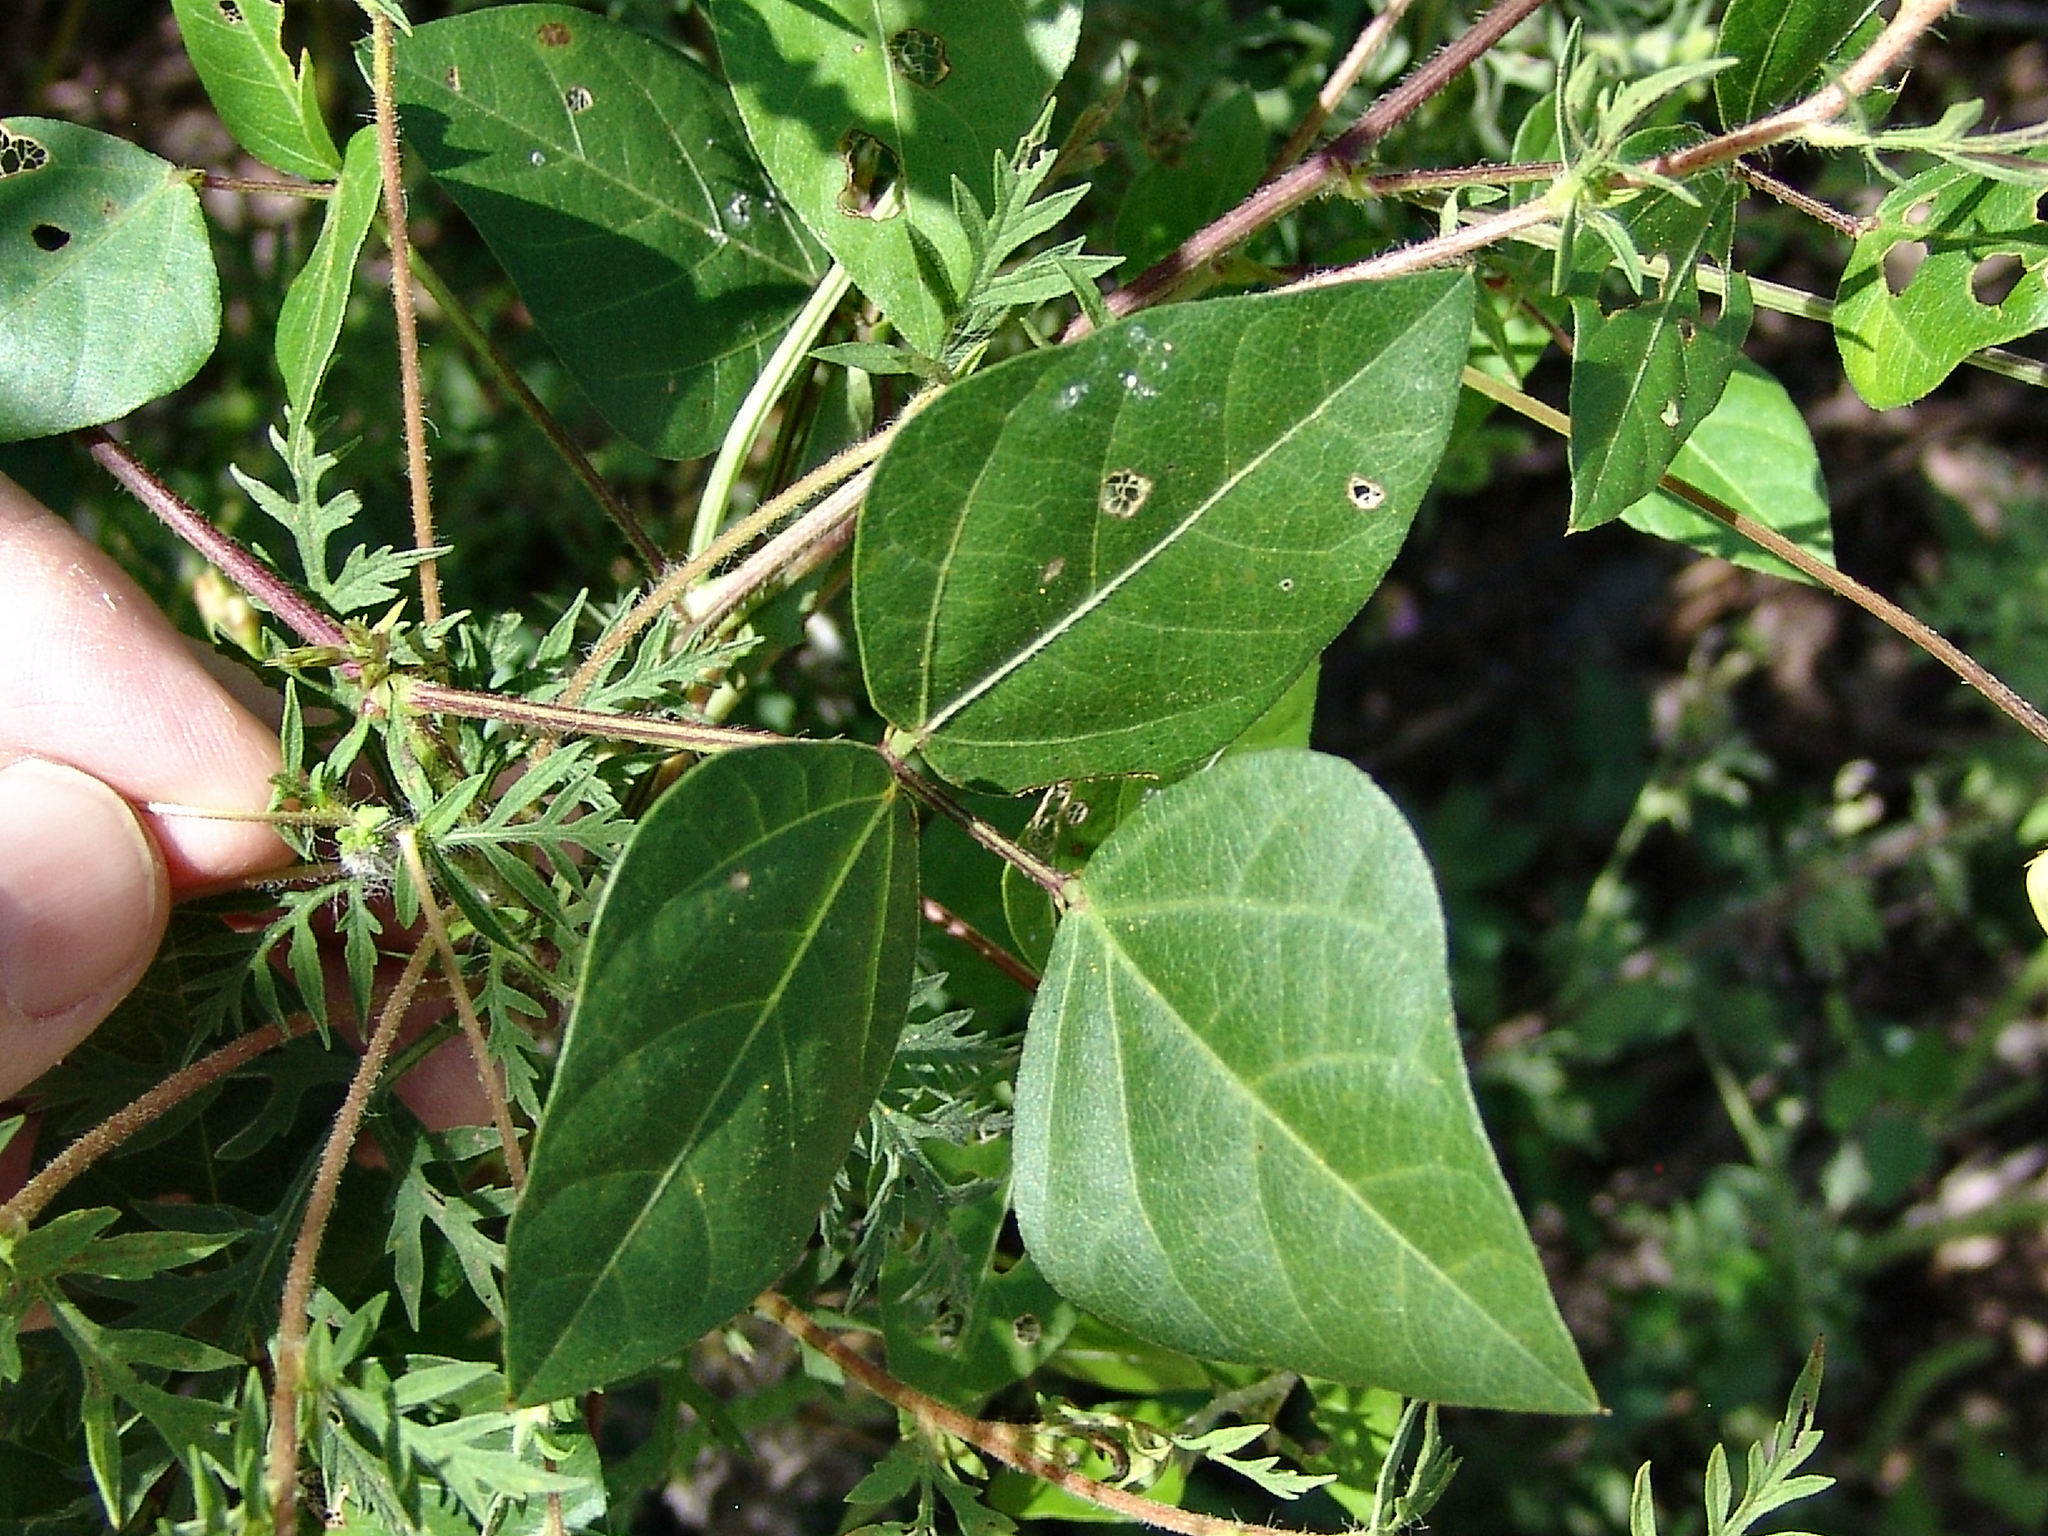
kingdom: Plantae
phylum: Tracheophyta
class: Magnoliopsida
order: Fabales
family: Fabaceae
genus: Strophostyles
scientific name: Strophostyles helvola
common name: Trailing wild bean
